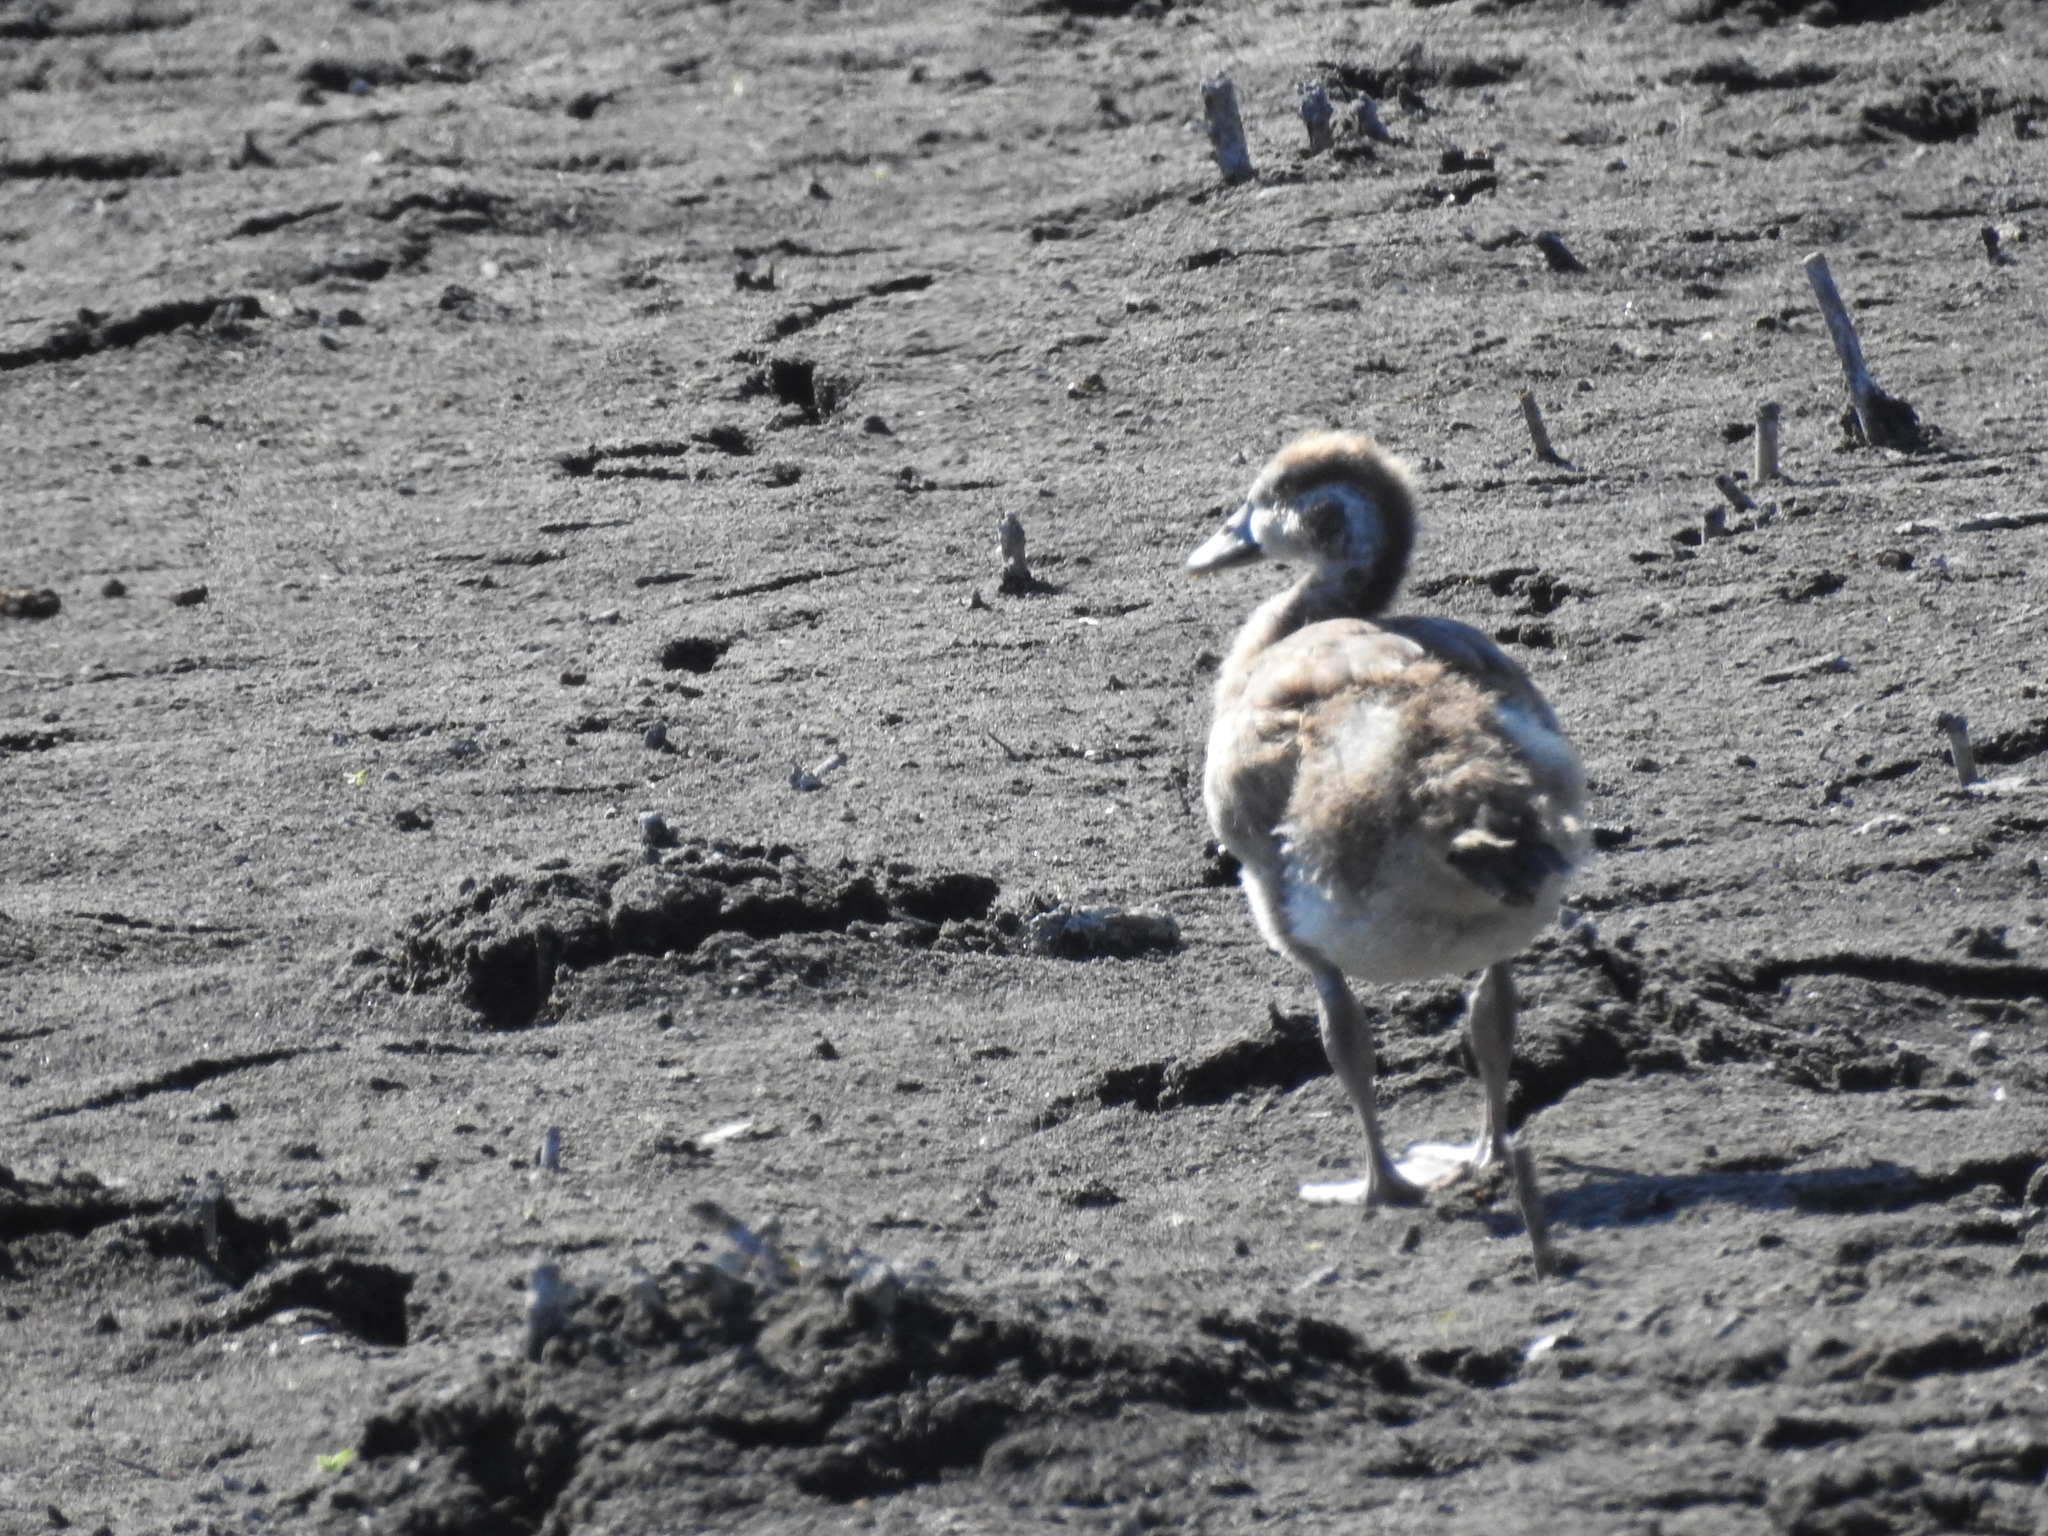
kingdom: Animalia
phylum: Chordata
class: Aves
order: Anseriformes
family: Anatidae
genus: Alopochen
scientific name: Alopochen aegyptiaca
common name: Egyptian goose
